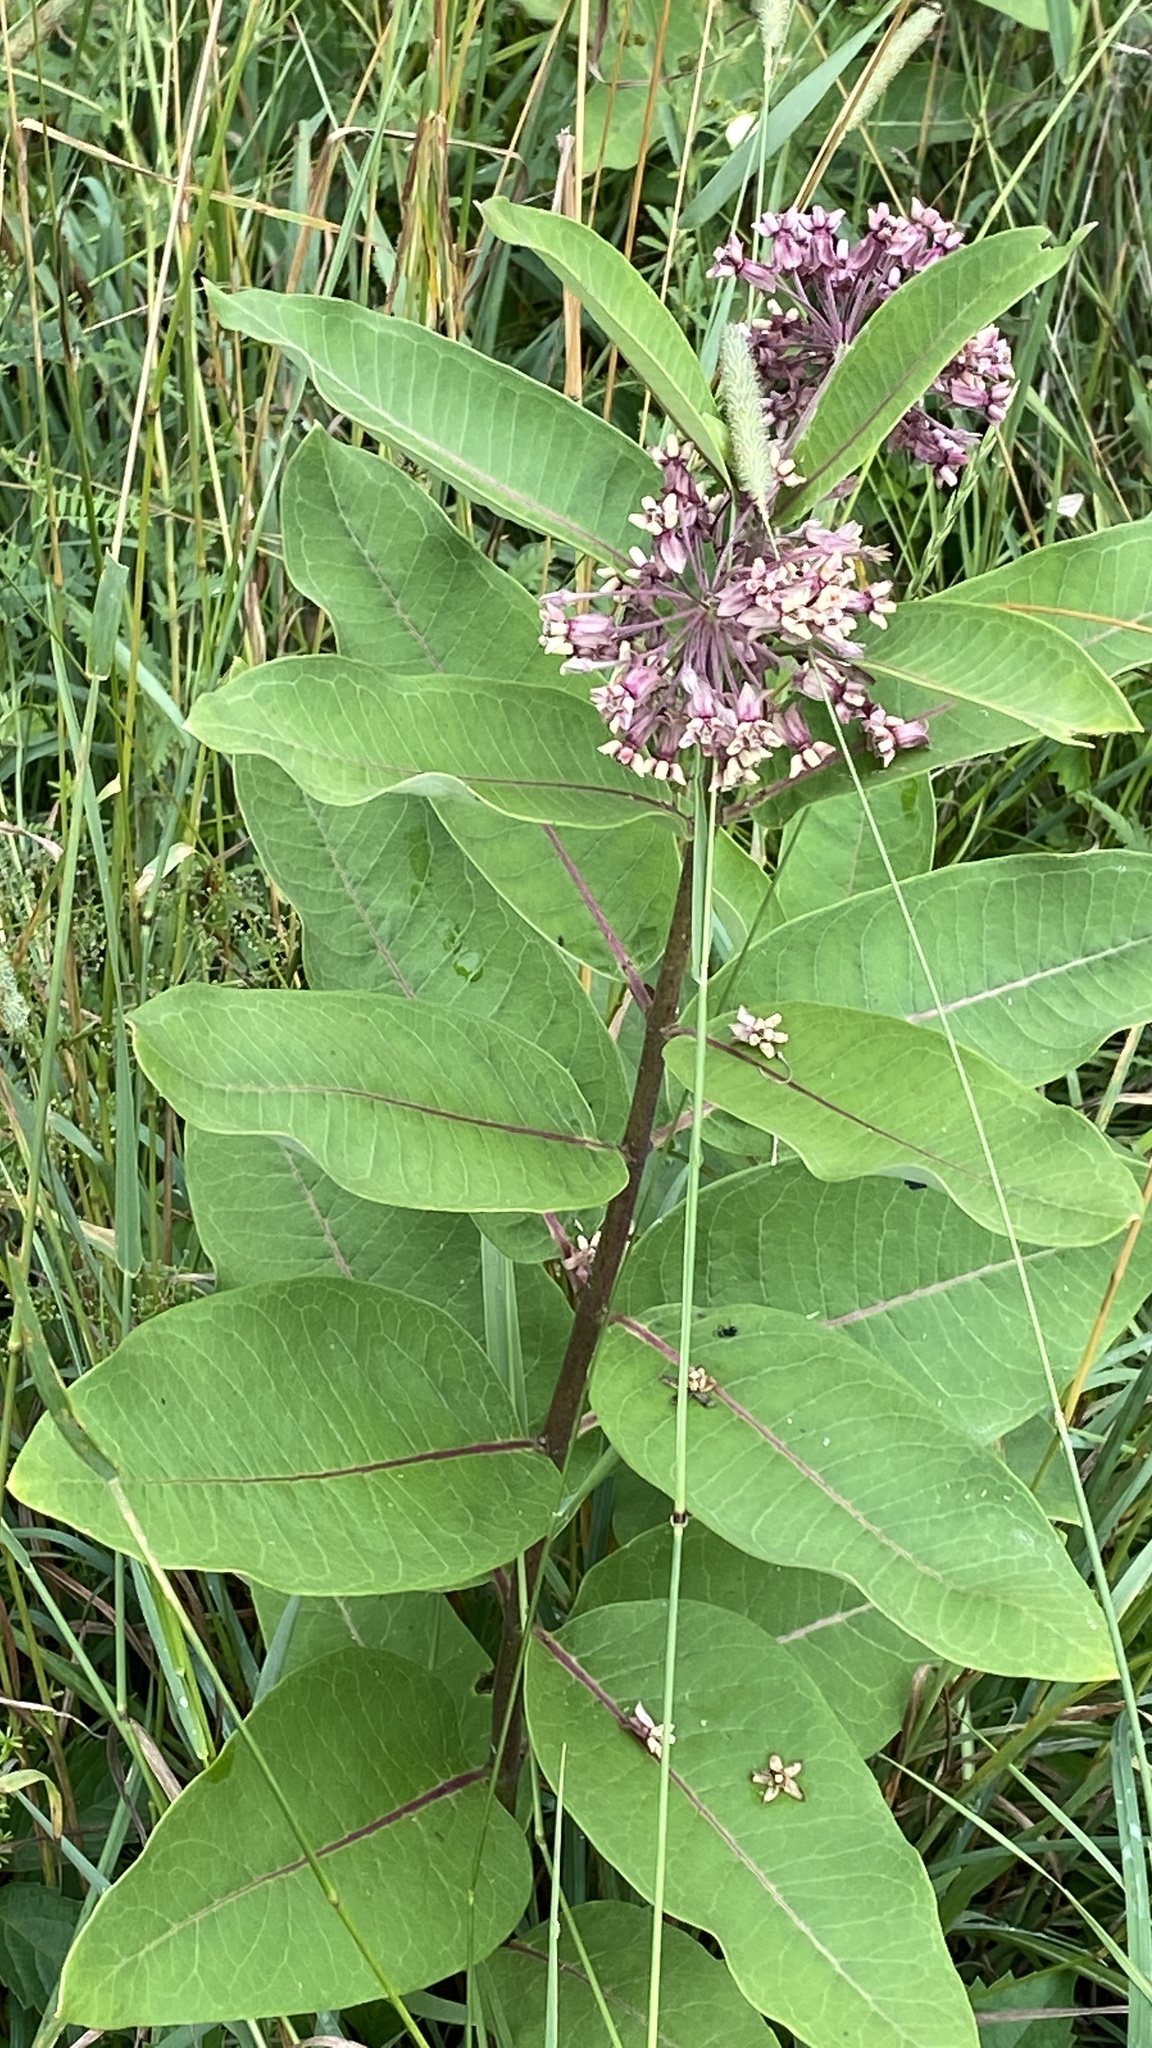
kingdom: Plantae
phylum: Tracheophyta
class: Magnoliopsida
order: Gentianales
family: Apocynaceae
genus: Asclepias
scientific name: Asclepias syriaca
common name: Common milkweed
